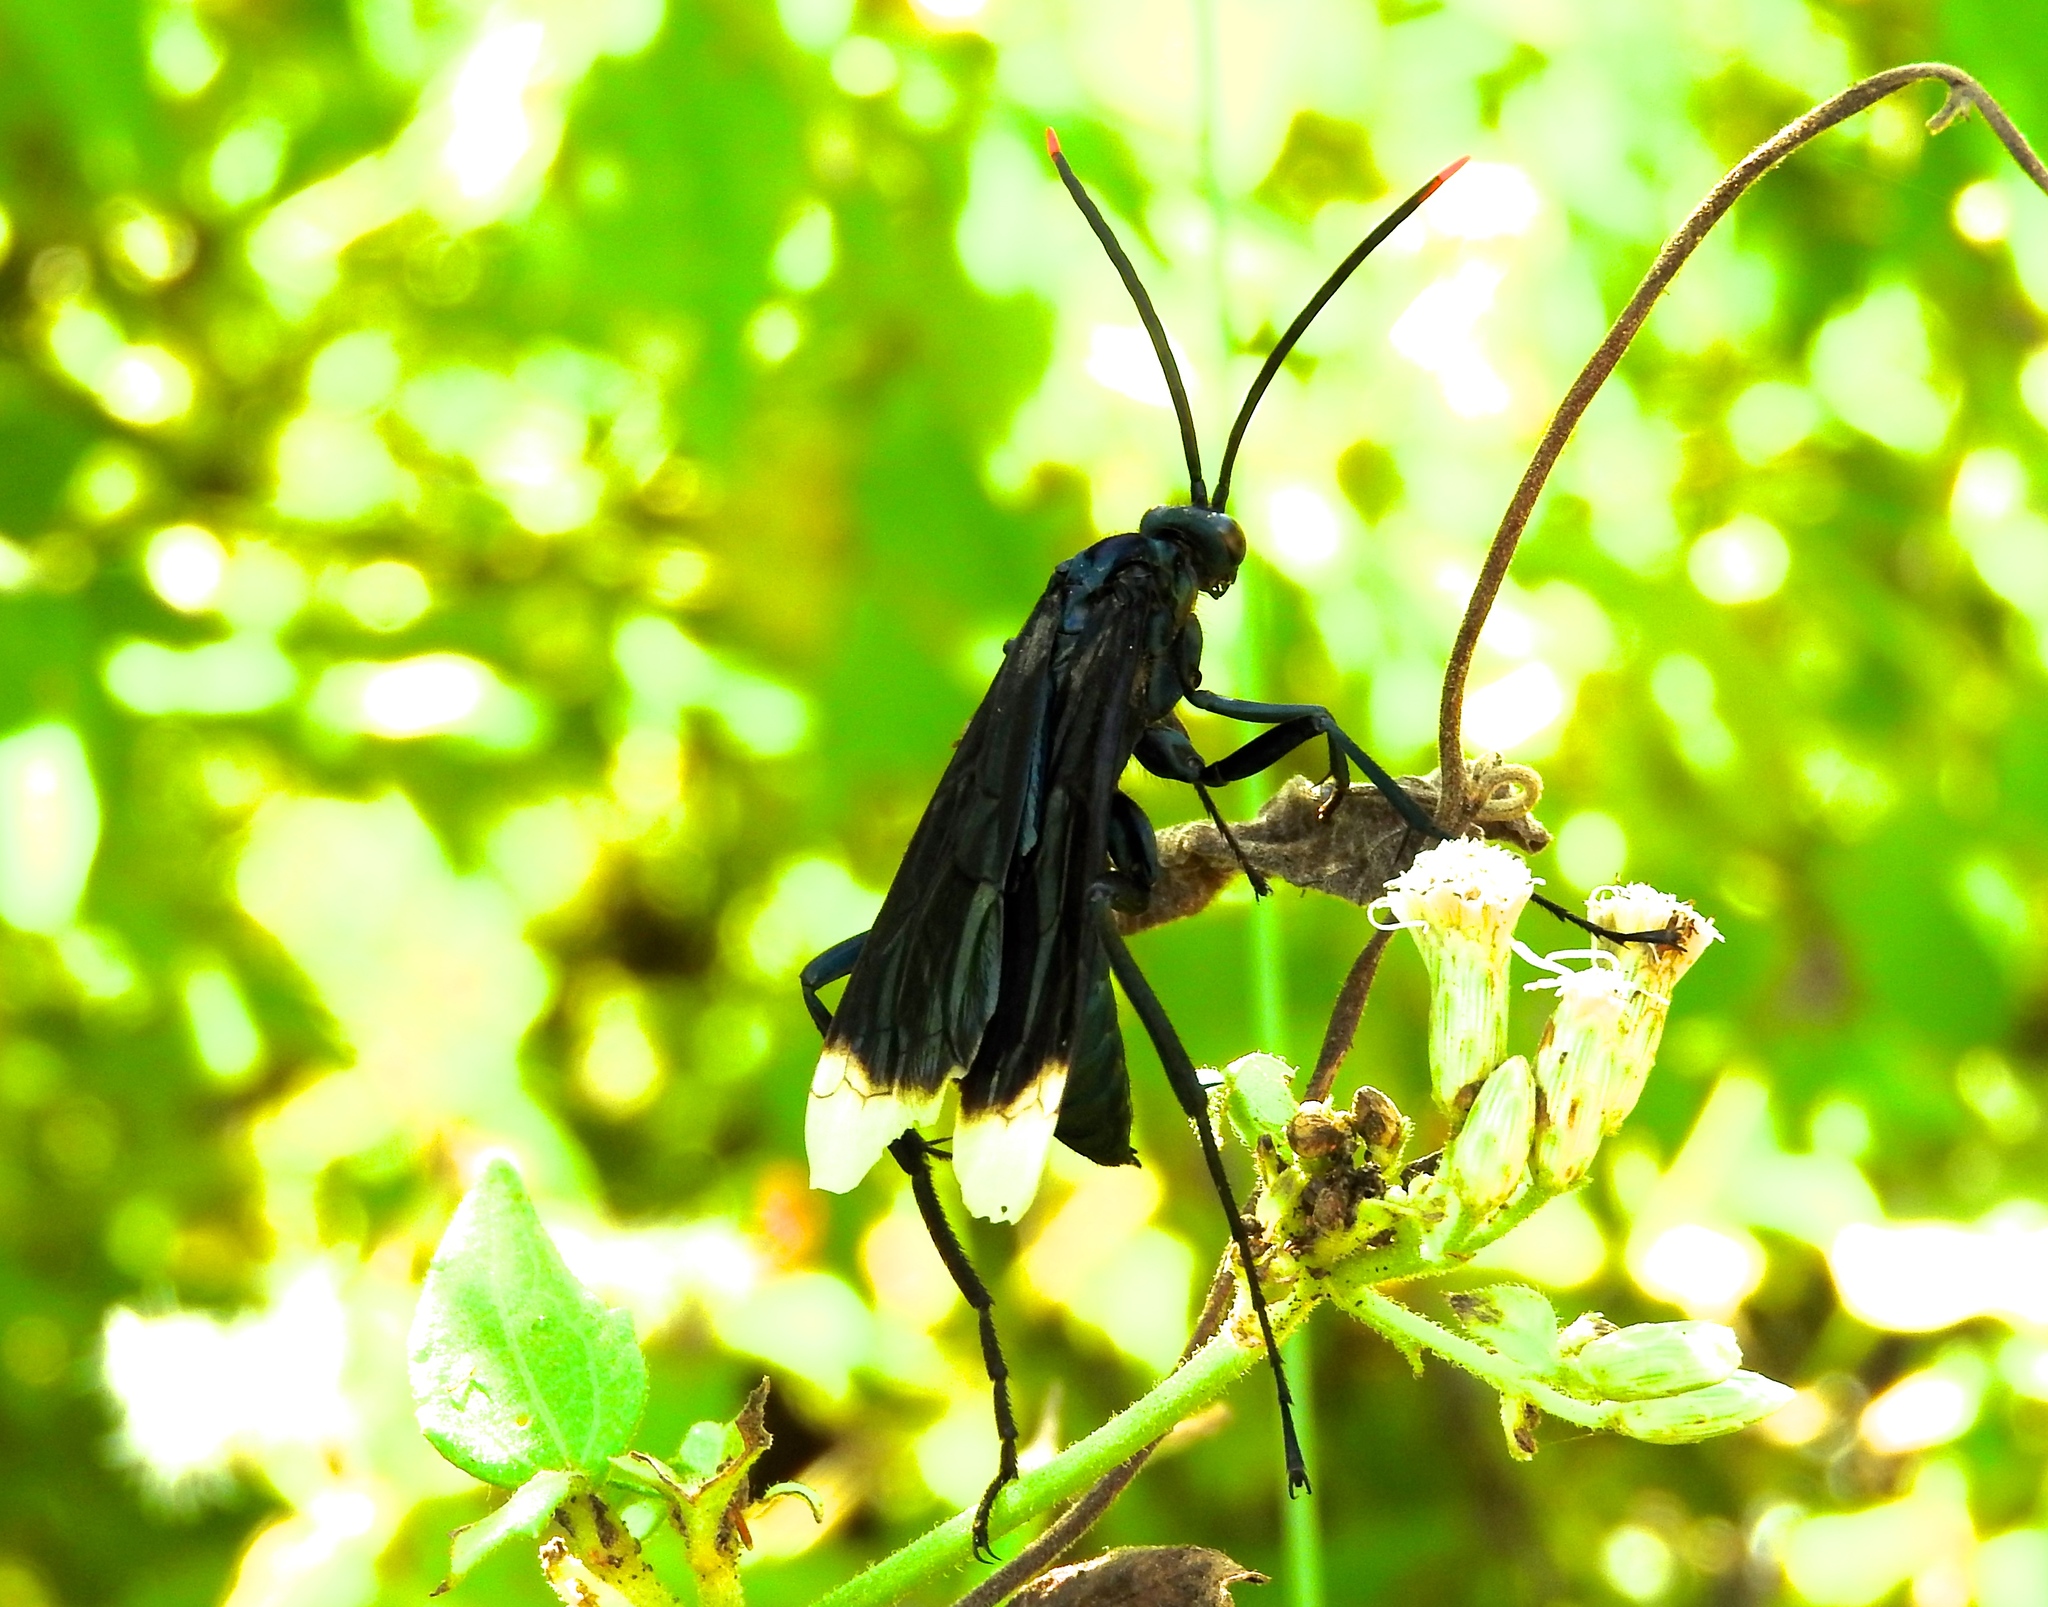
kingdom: Animalia
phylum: Arthropoda
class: Insecta
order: Hymenoptera
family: Pompilidae
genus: Pepsis
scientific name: Pepsis
